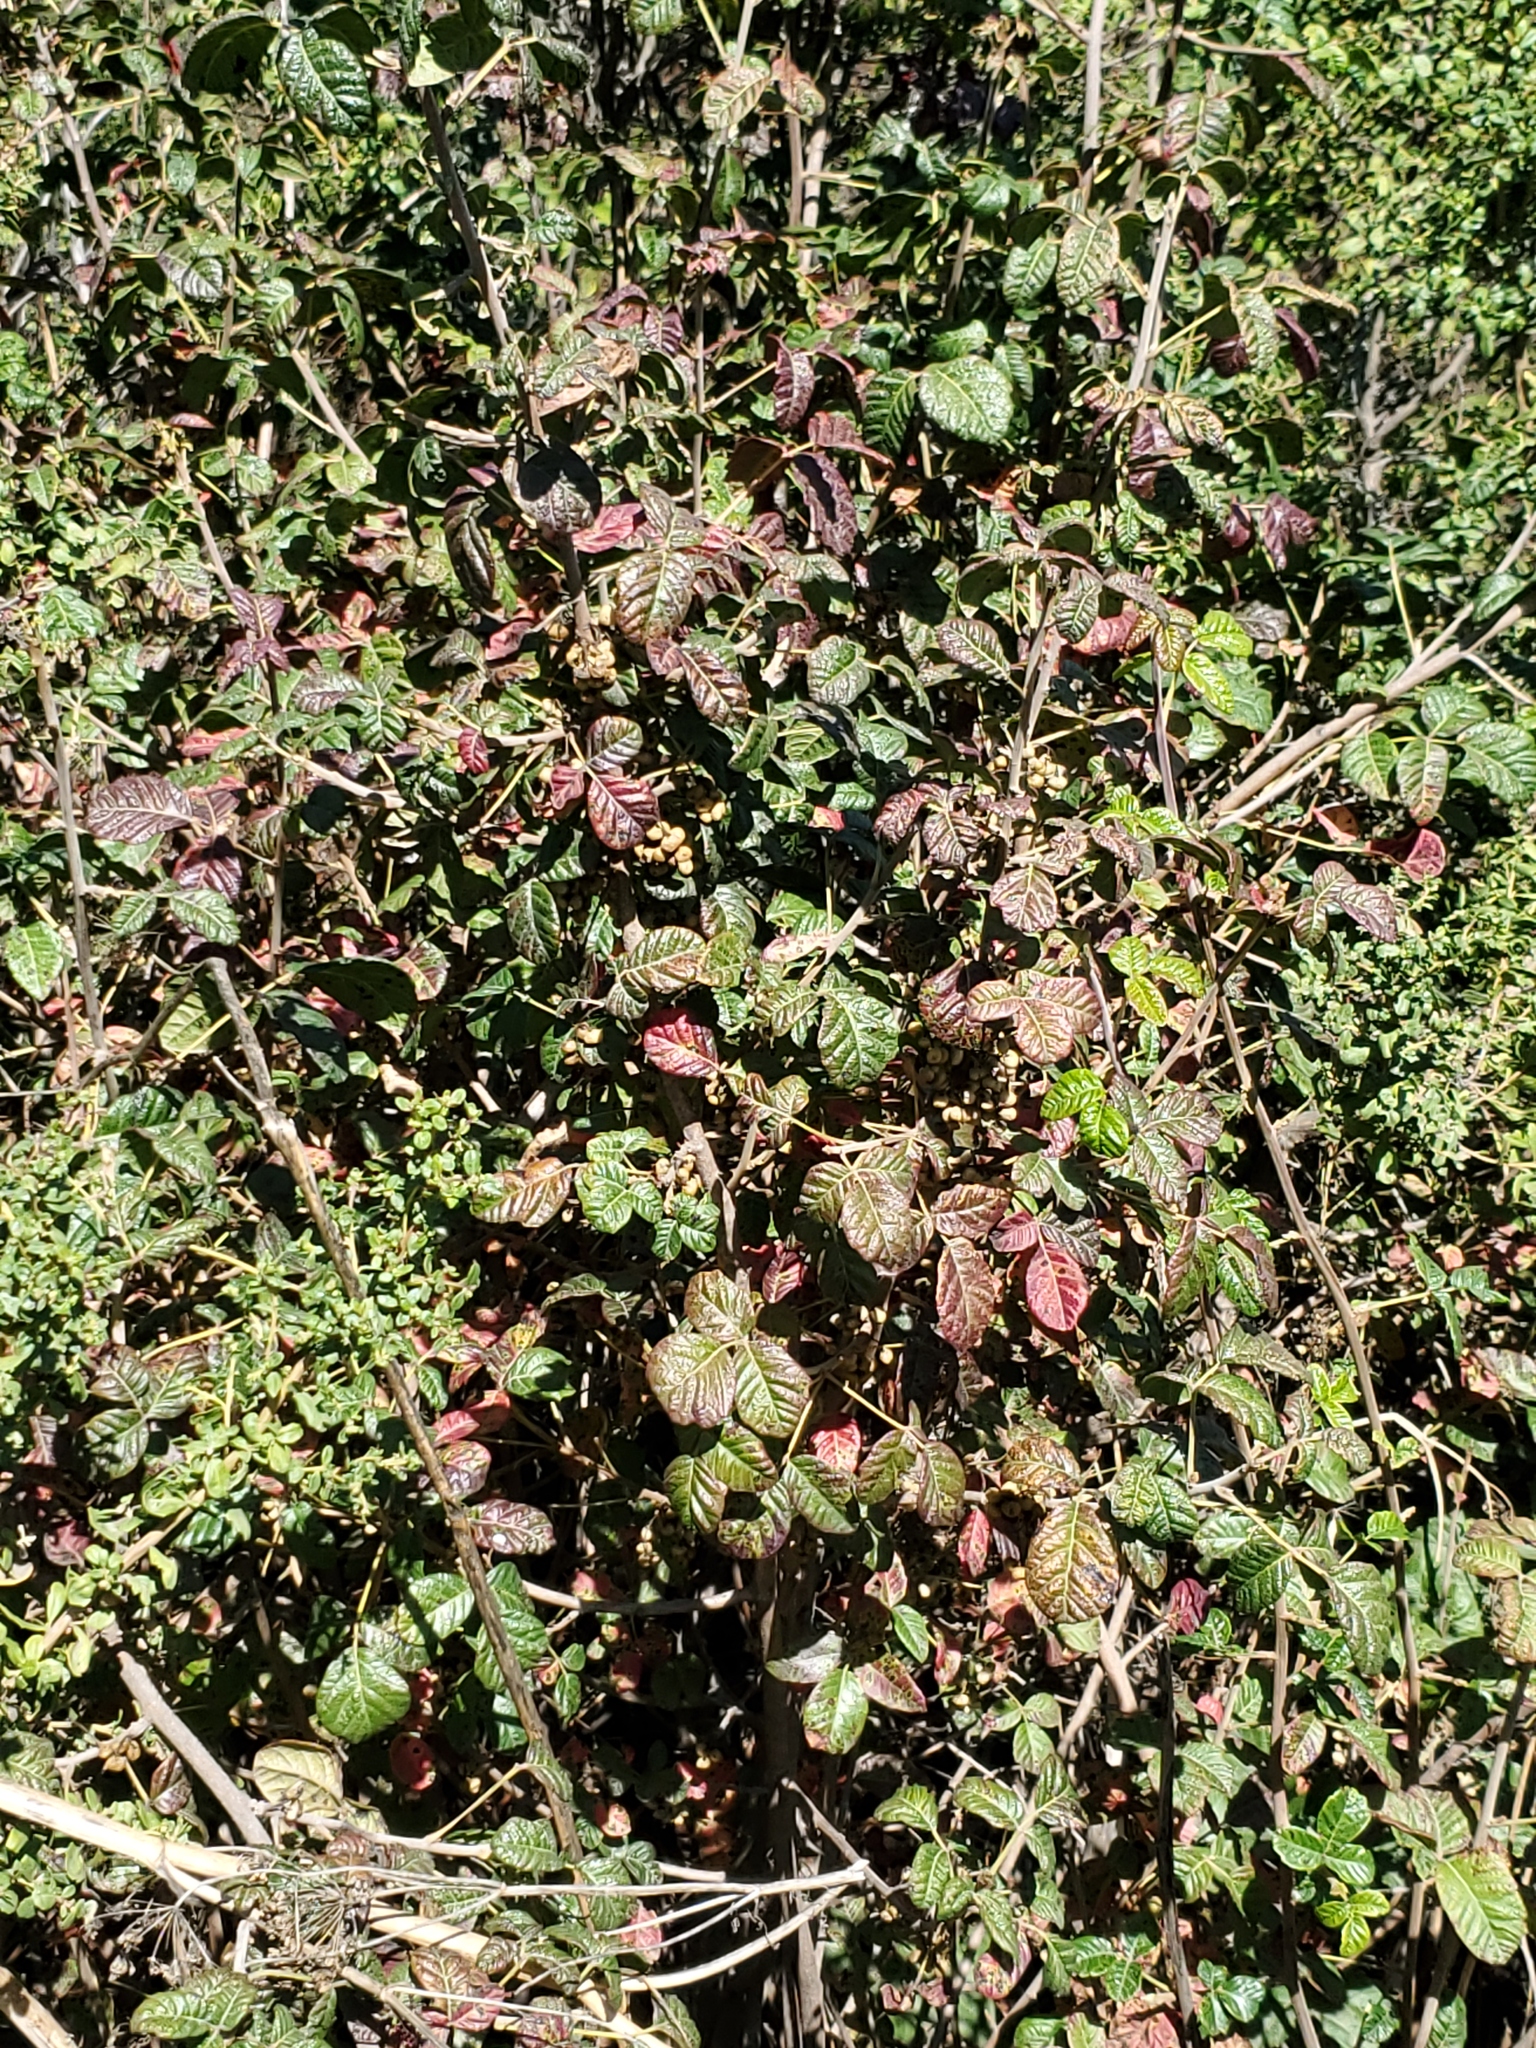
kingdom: Plantae
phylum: Tracheophyta
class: Magnoliopsida
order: Sapindales
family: Anacardiaceae
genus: Toxicodendron
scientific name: Toxicodendron diversilobum
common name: Pacific poison-oak
